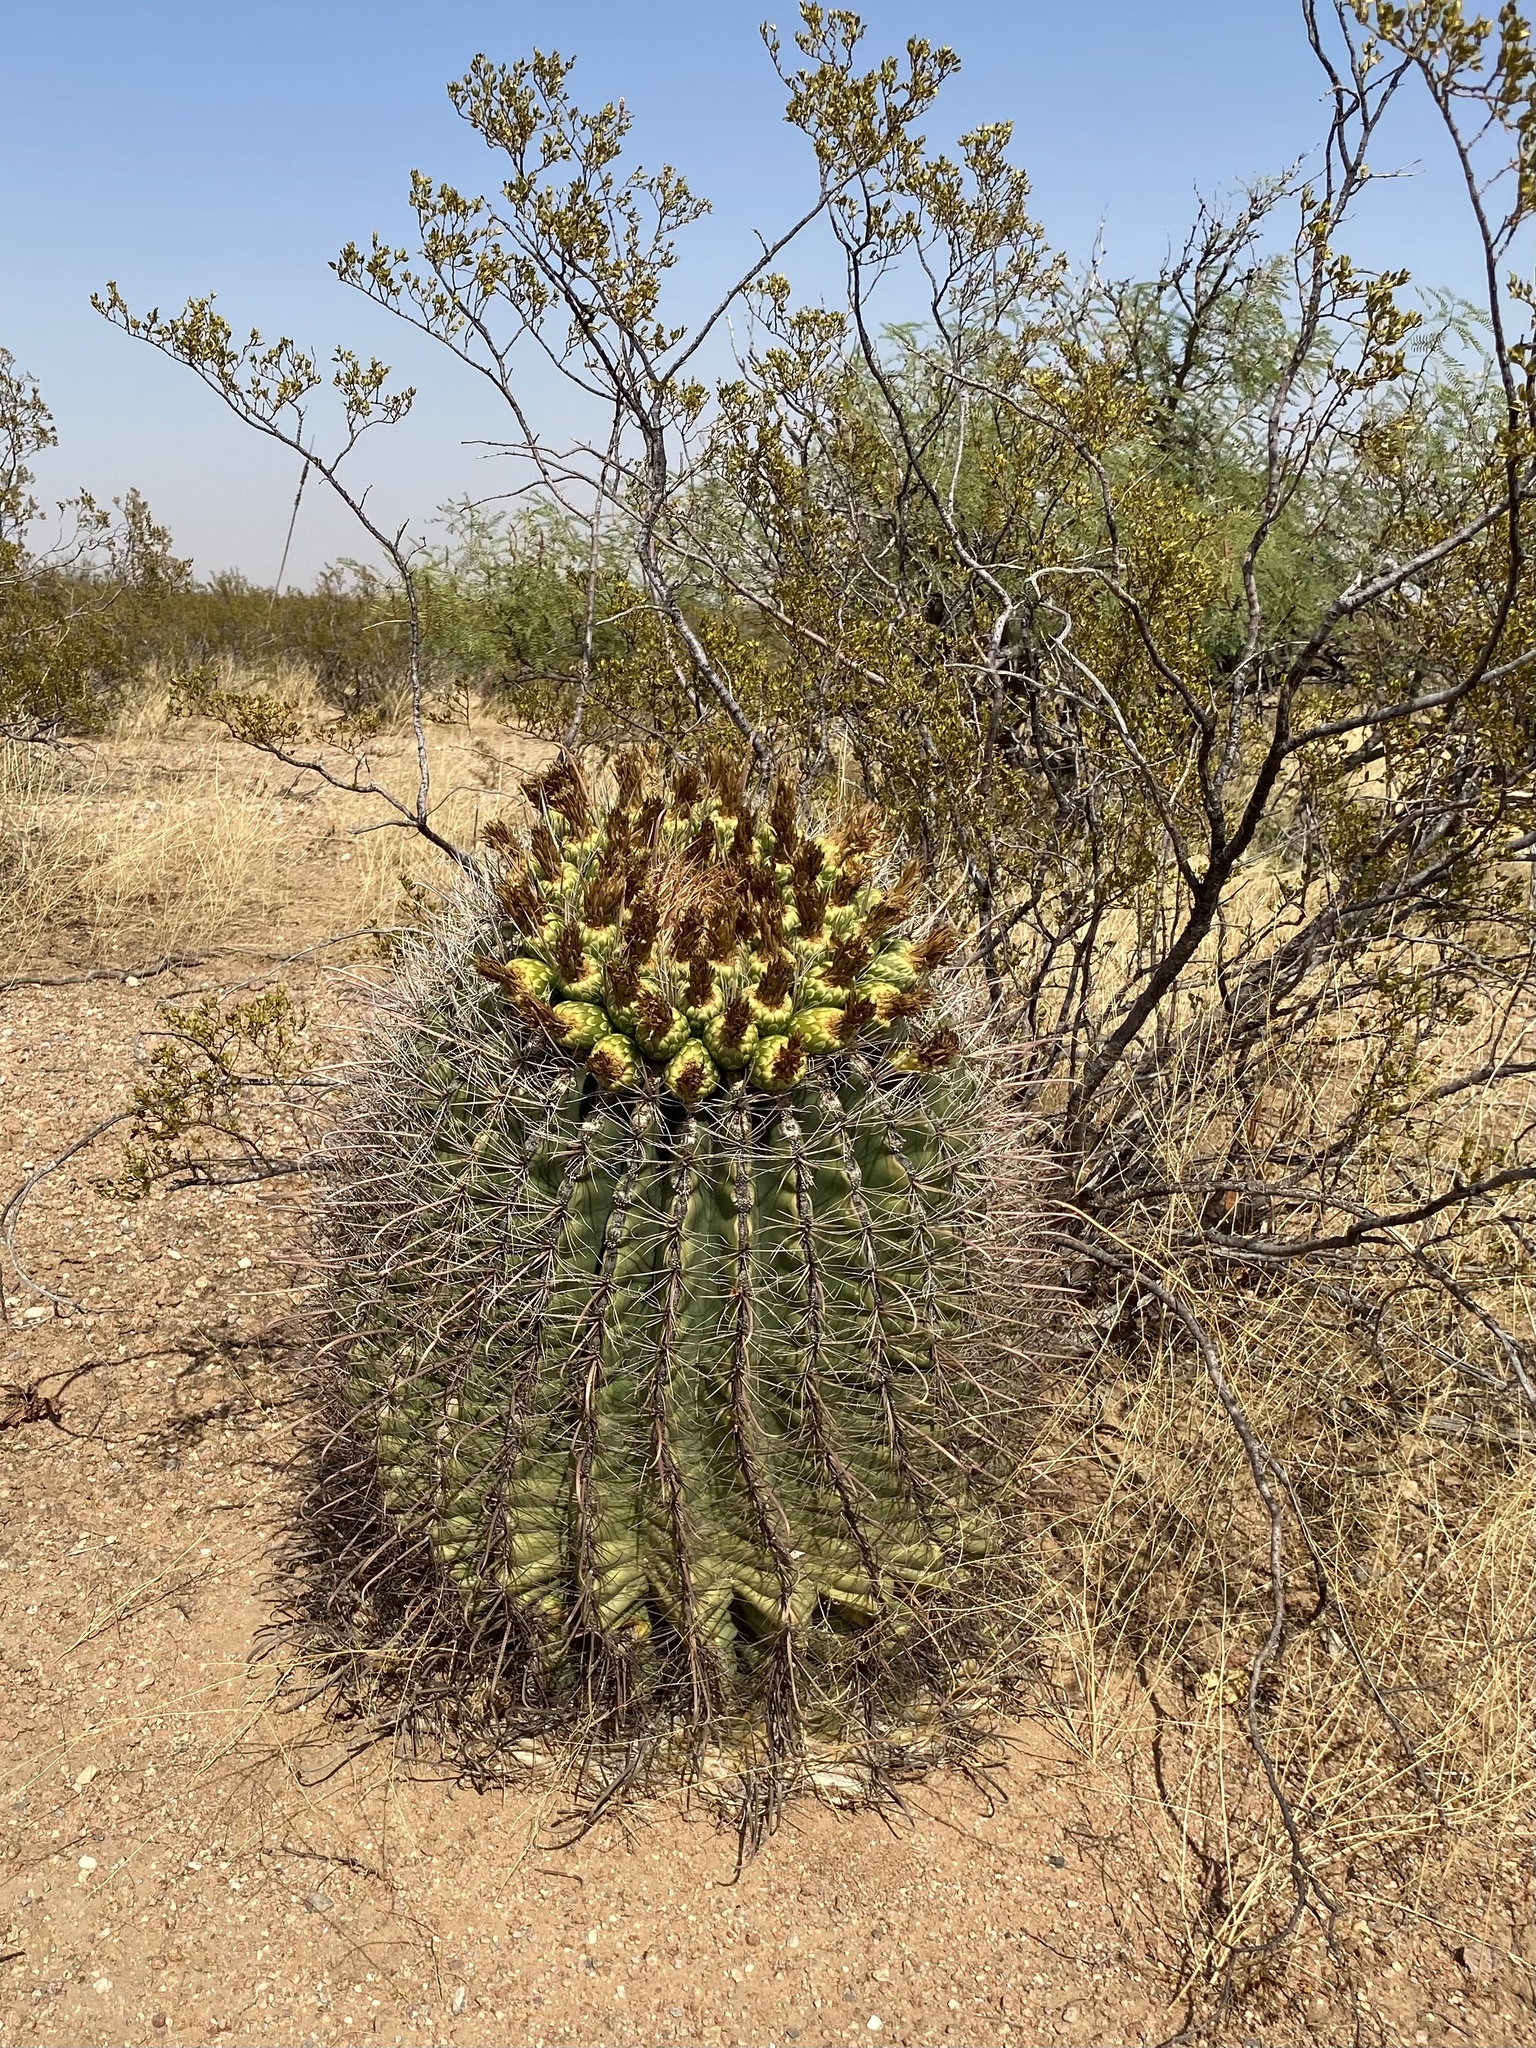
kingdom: Plantae
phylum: Tracheophyta
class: Magnoliopsida
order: Caryophyllales
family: Cactaceae
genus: Ferocactus
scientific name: Ferocactus wislizeni
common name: Candy barrel cactus
